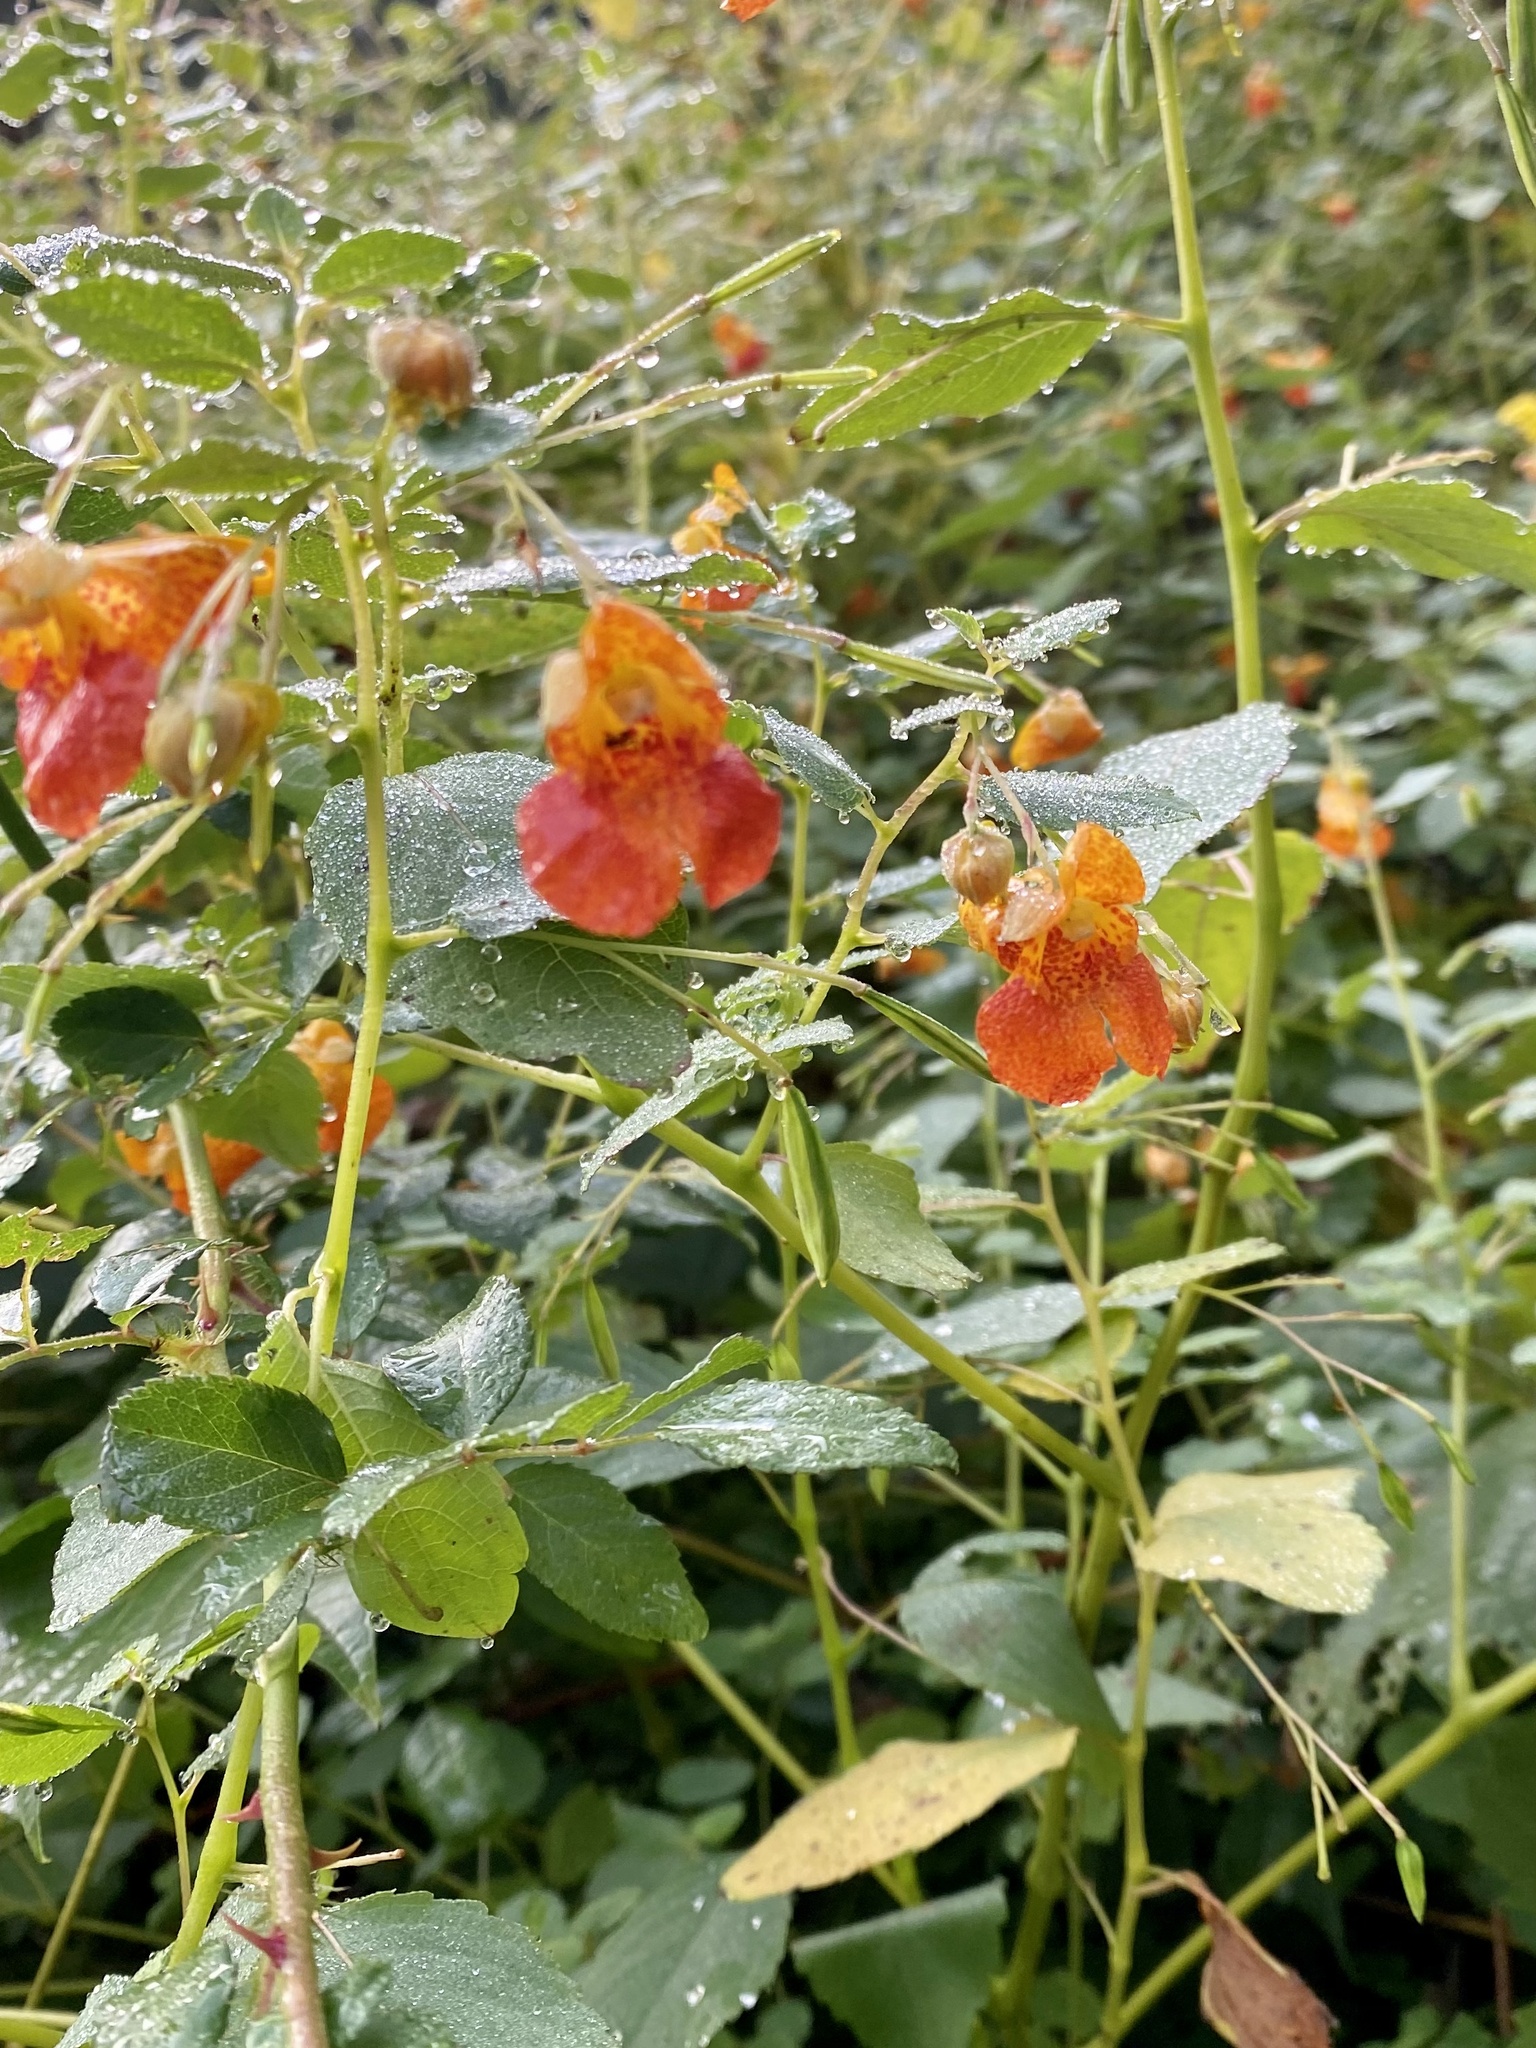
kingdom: Plantae
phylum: Tracheophyta
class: Magnoliopsida
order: Ericales
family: Balsaminaceae
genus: Impatiens
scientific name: Impatiens capensis
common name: Orange balsam
